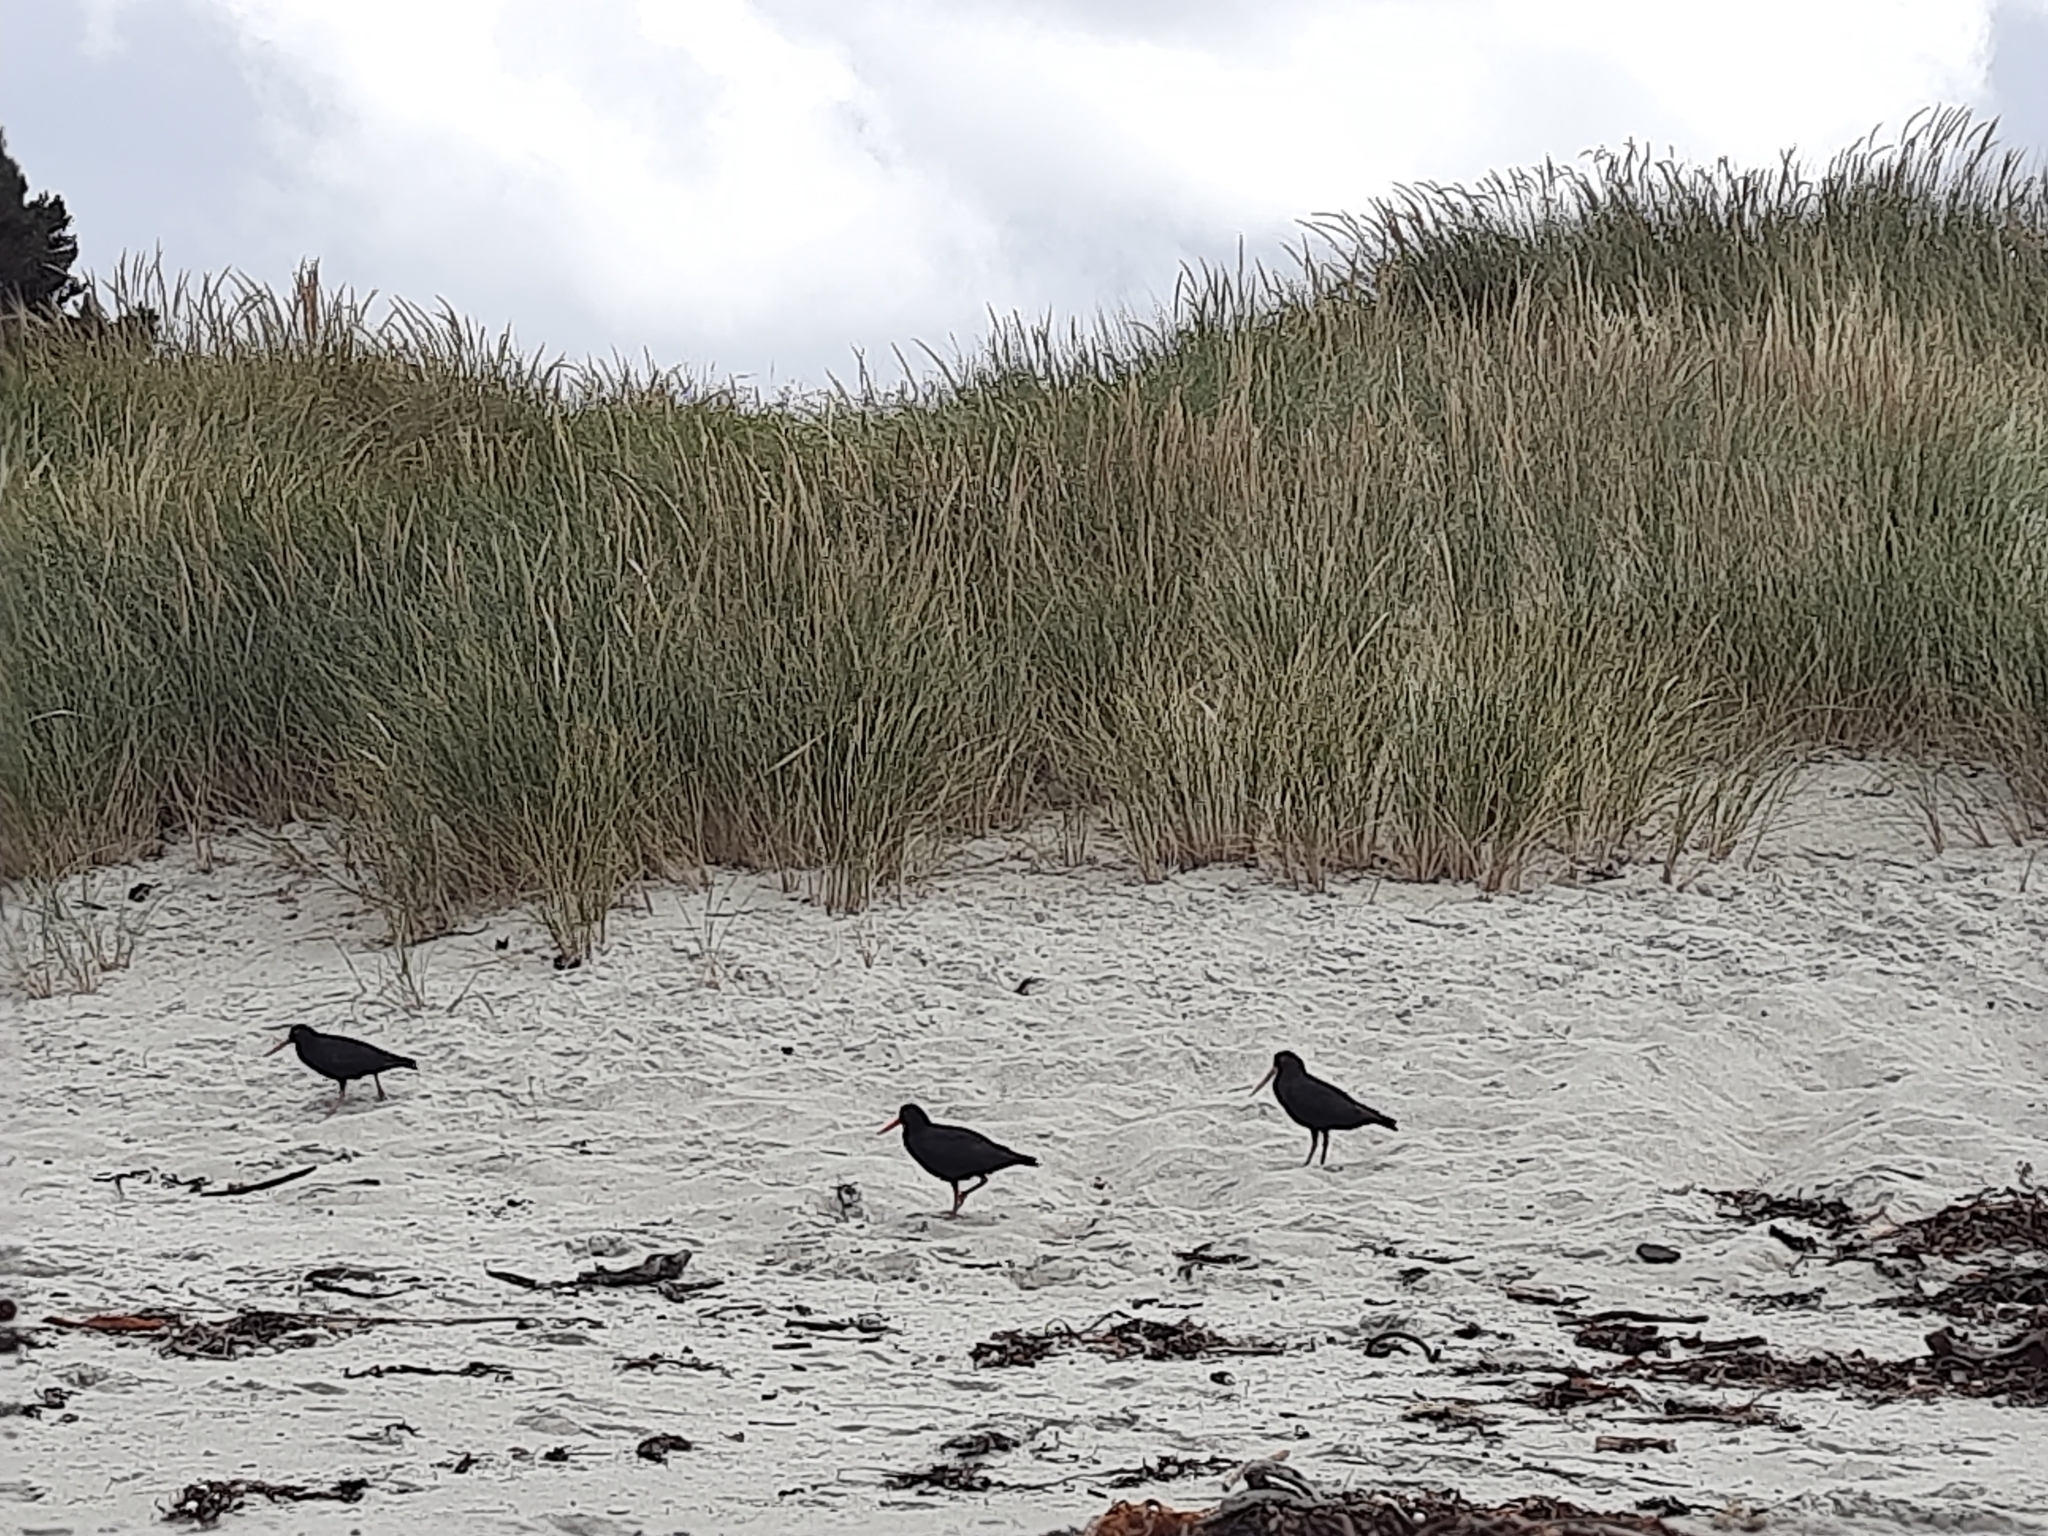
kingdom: Animalia
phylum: Chordata
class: Aves
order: Charadriiformes
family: Haematopodidae
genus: Haematopus
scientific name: Haematopus unicolor
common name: Variable oystercatcher
